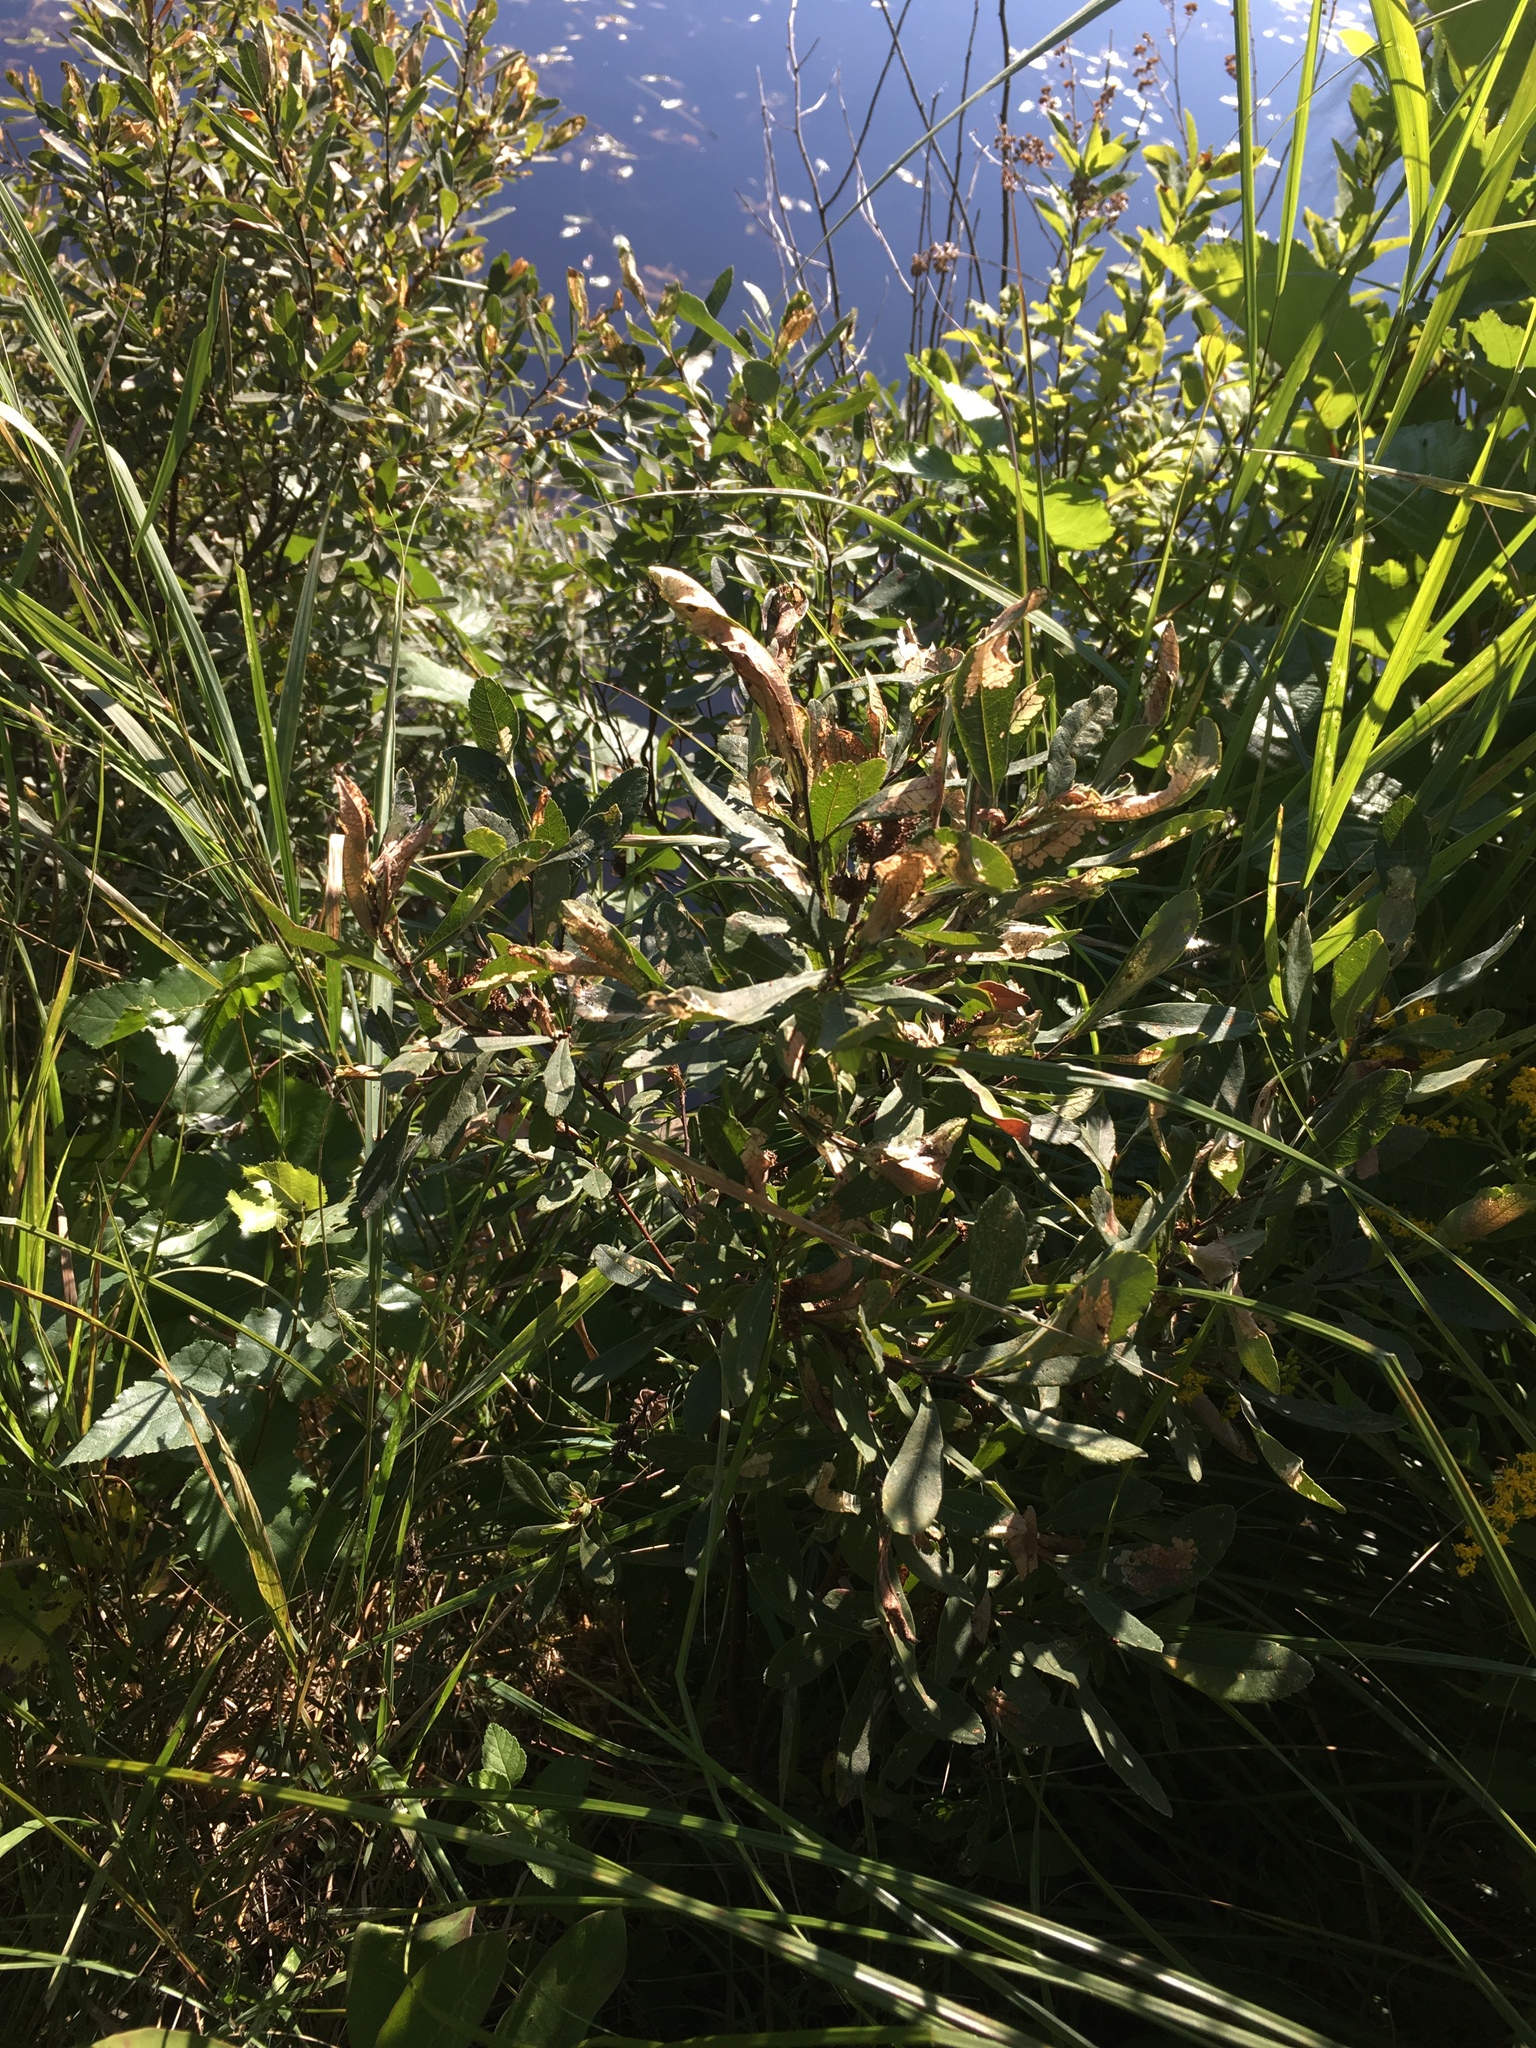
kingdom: Plantae
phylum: Tracheophyta
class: Magnoliopsida
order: Fagales
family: Myricaceae
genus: Myrica
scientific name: Myrica gale
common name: Sweet gale
